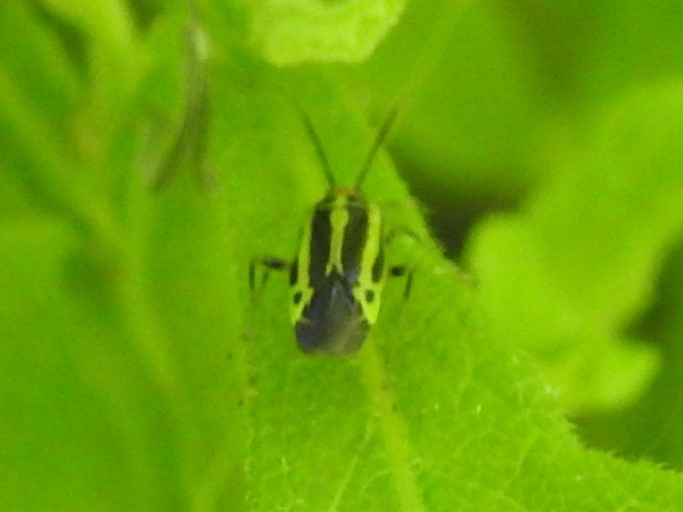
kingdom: Animalia
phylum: Arthropoda
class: Insecta
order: Hemiptera
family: Miridae
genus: Poecilocapsus
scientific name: Poecilocapsus lineatus
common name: Four-lined plant bug
